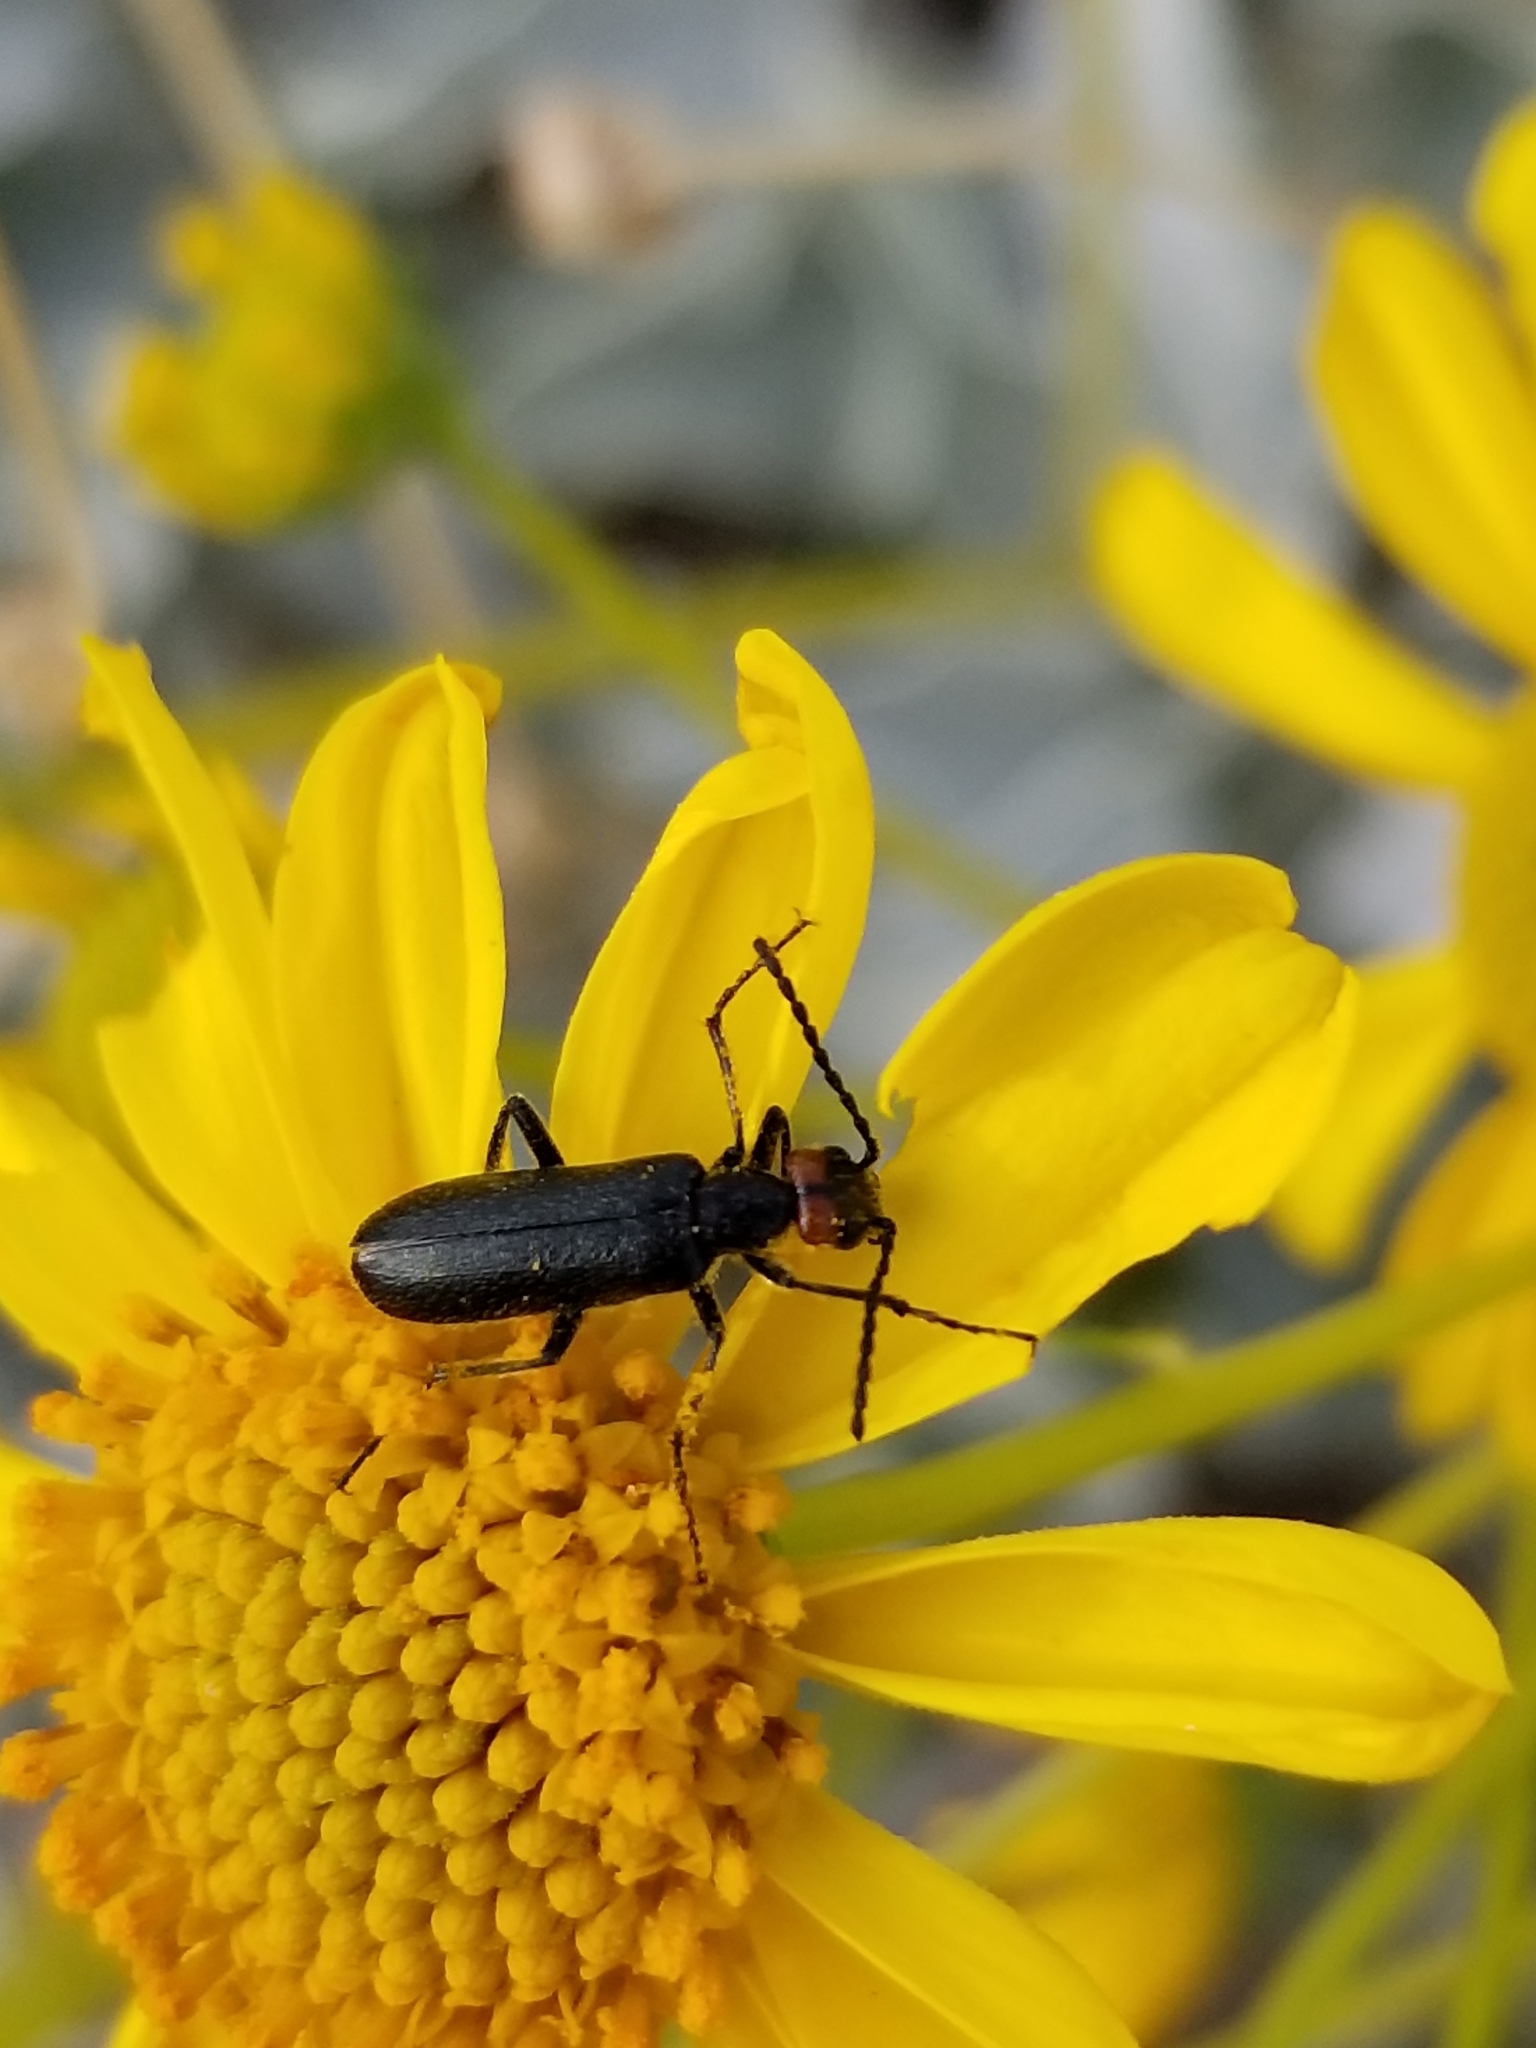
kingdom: Animalia
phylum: Arthropoda
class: Insecta
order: Coleoptera
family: Meloidae
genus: Lytta
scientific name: Lytta auriculata
